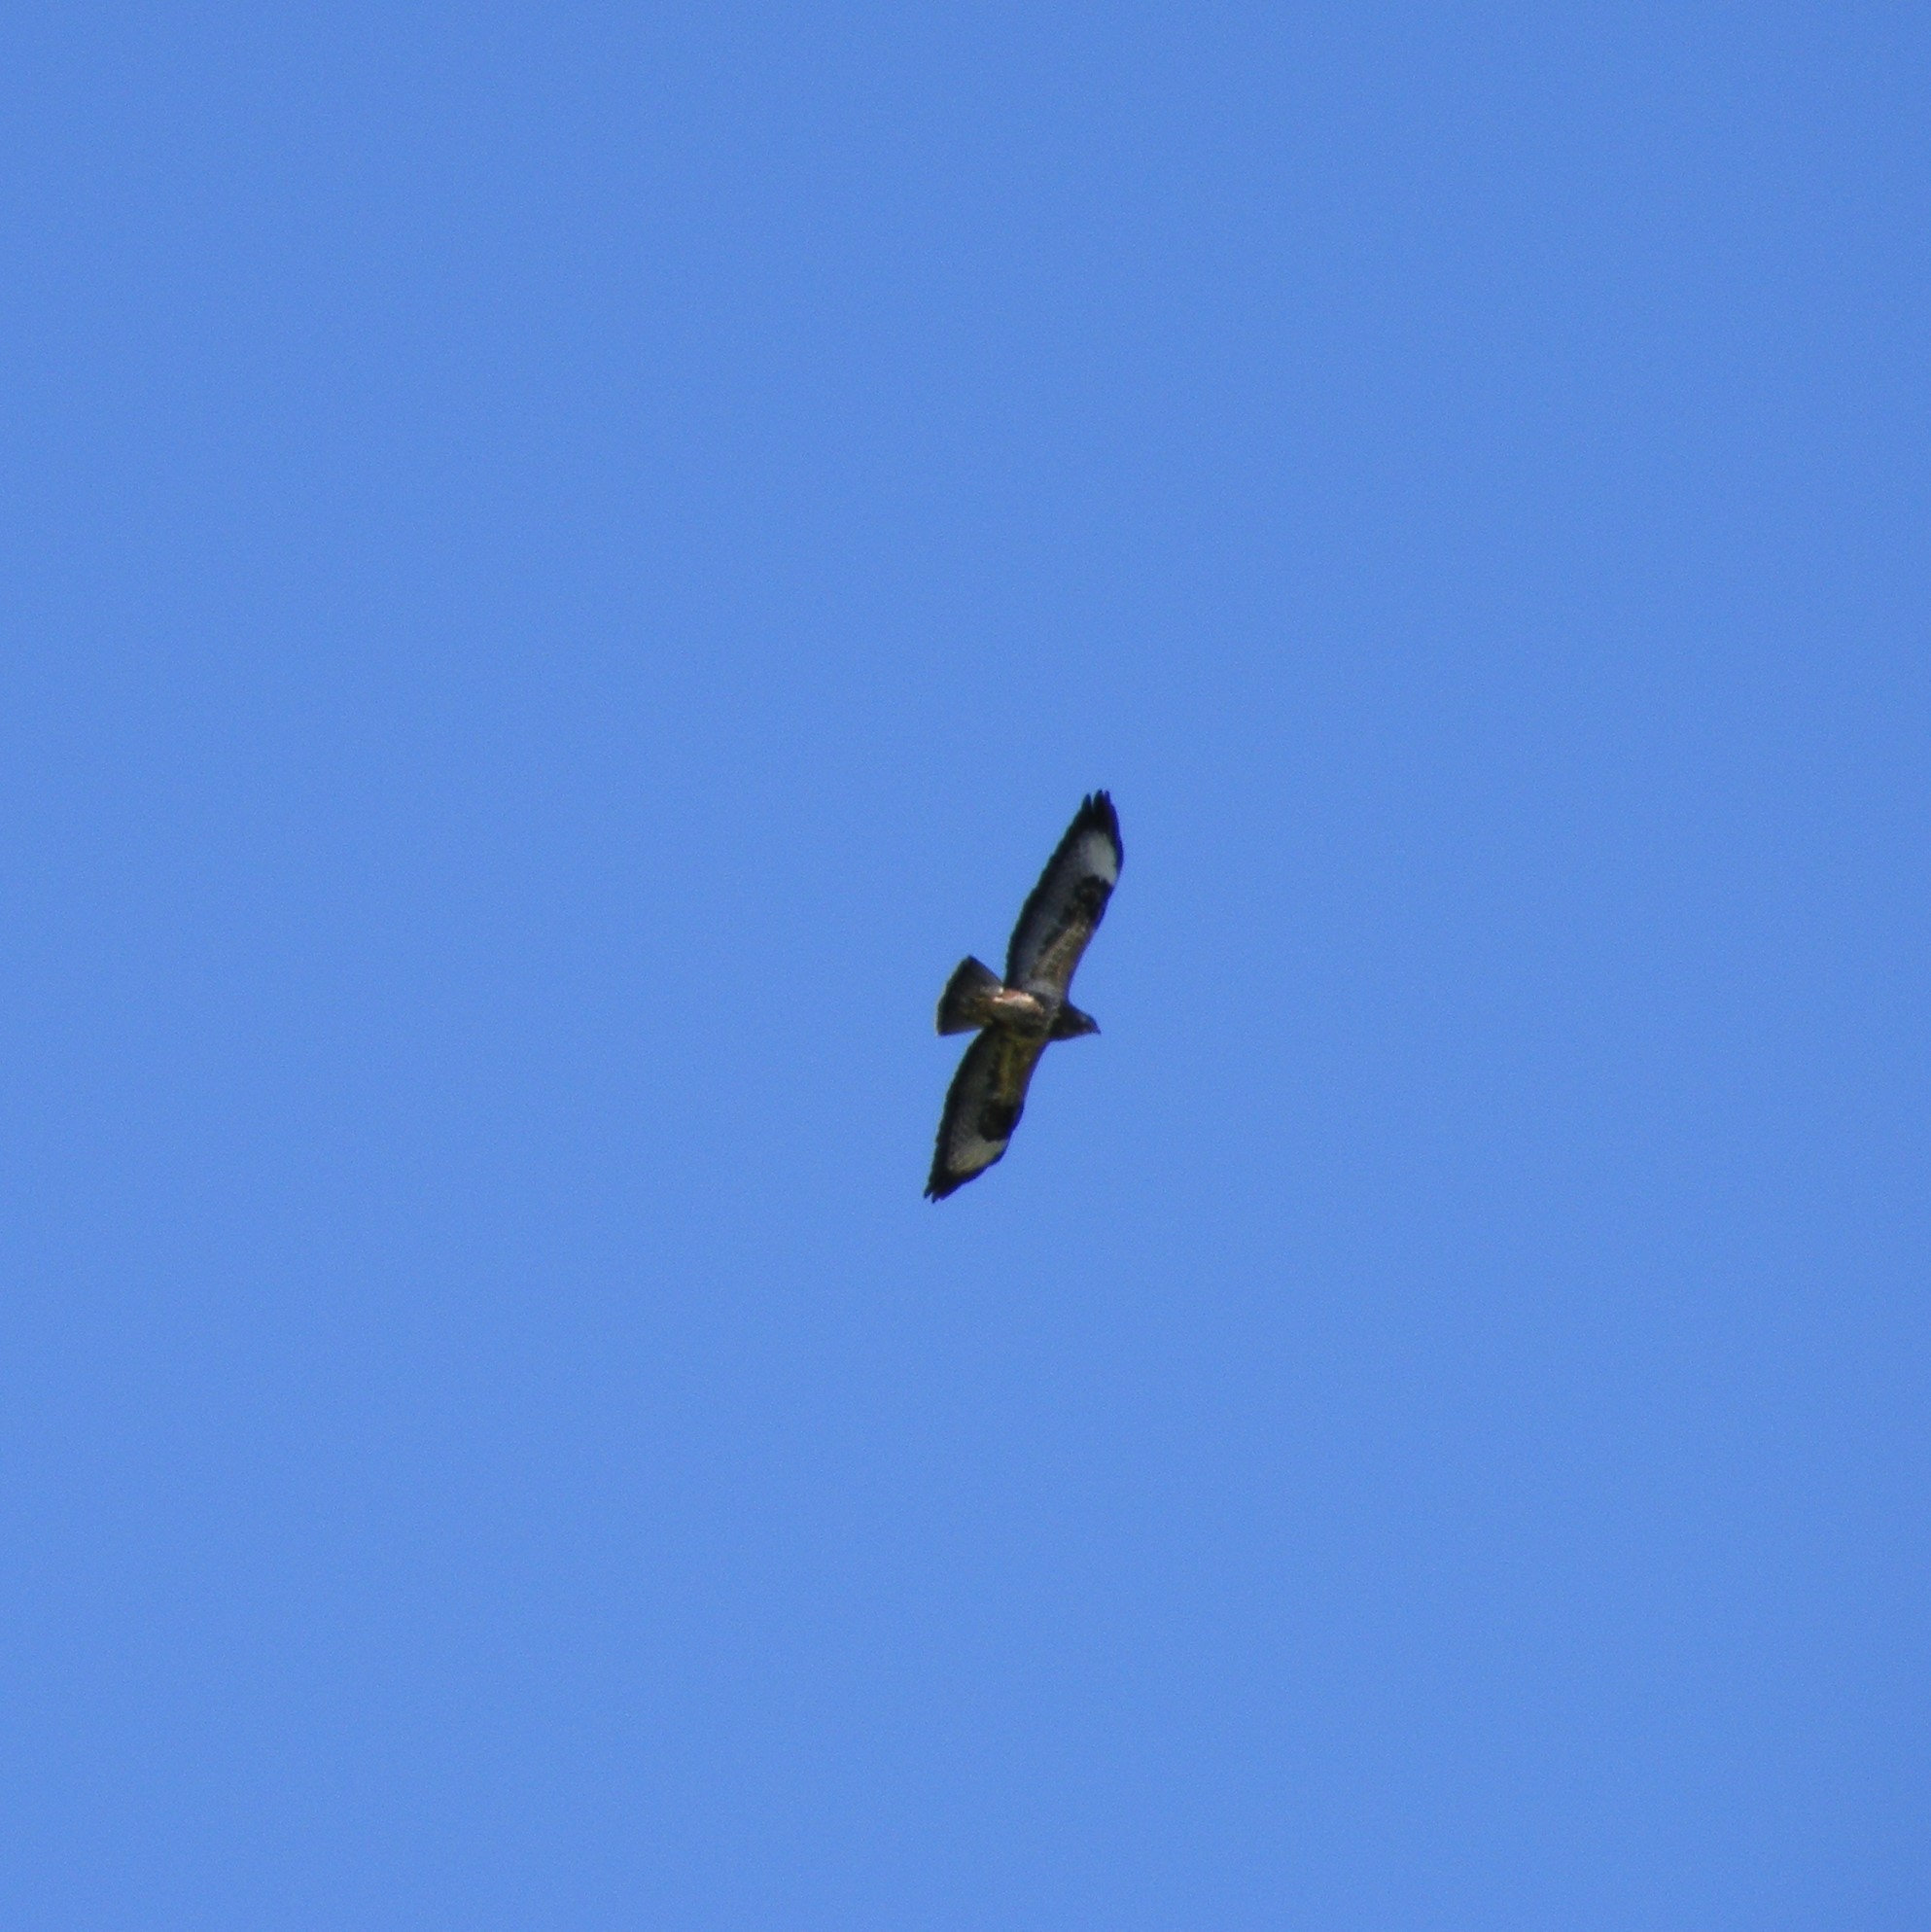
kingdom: Animalia
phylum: Chordata
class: Aves
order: Accipitriformes
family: Accipitridae
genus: Buteo
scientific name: Buteo buteo
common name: Common buzzard
